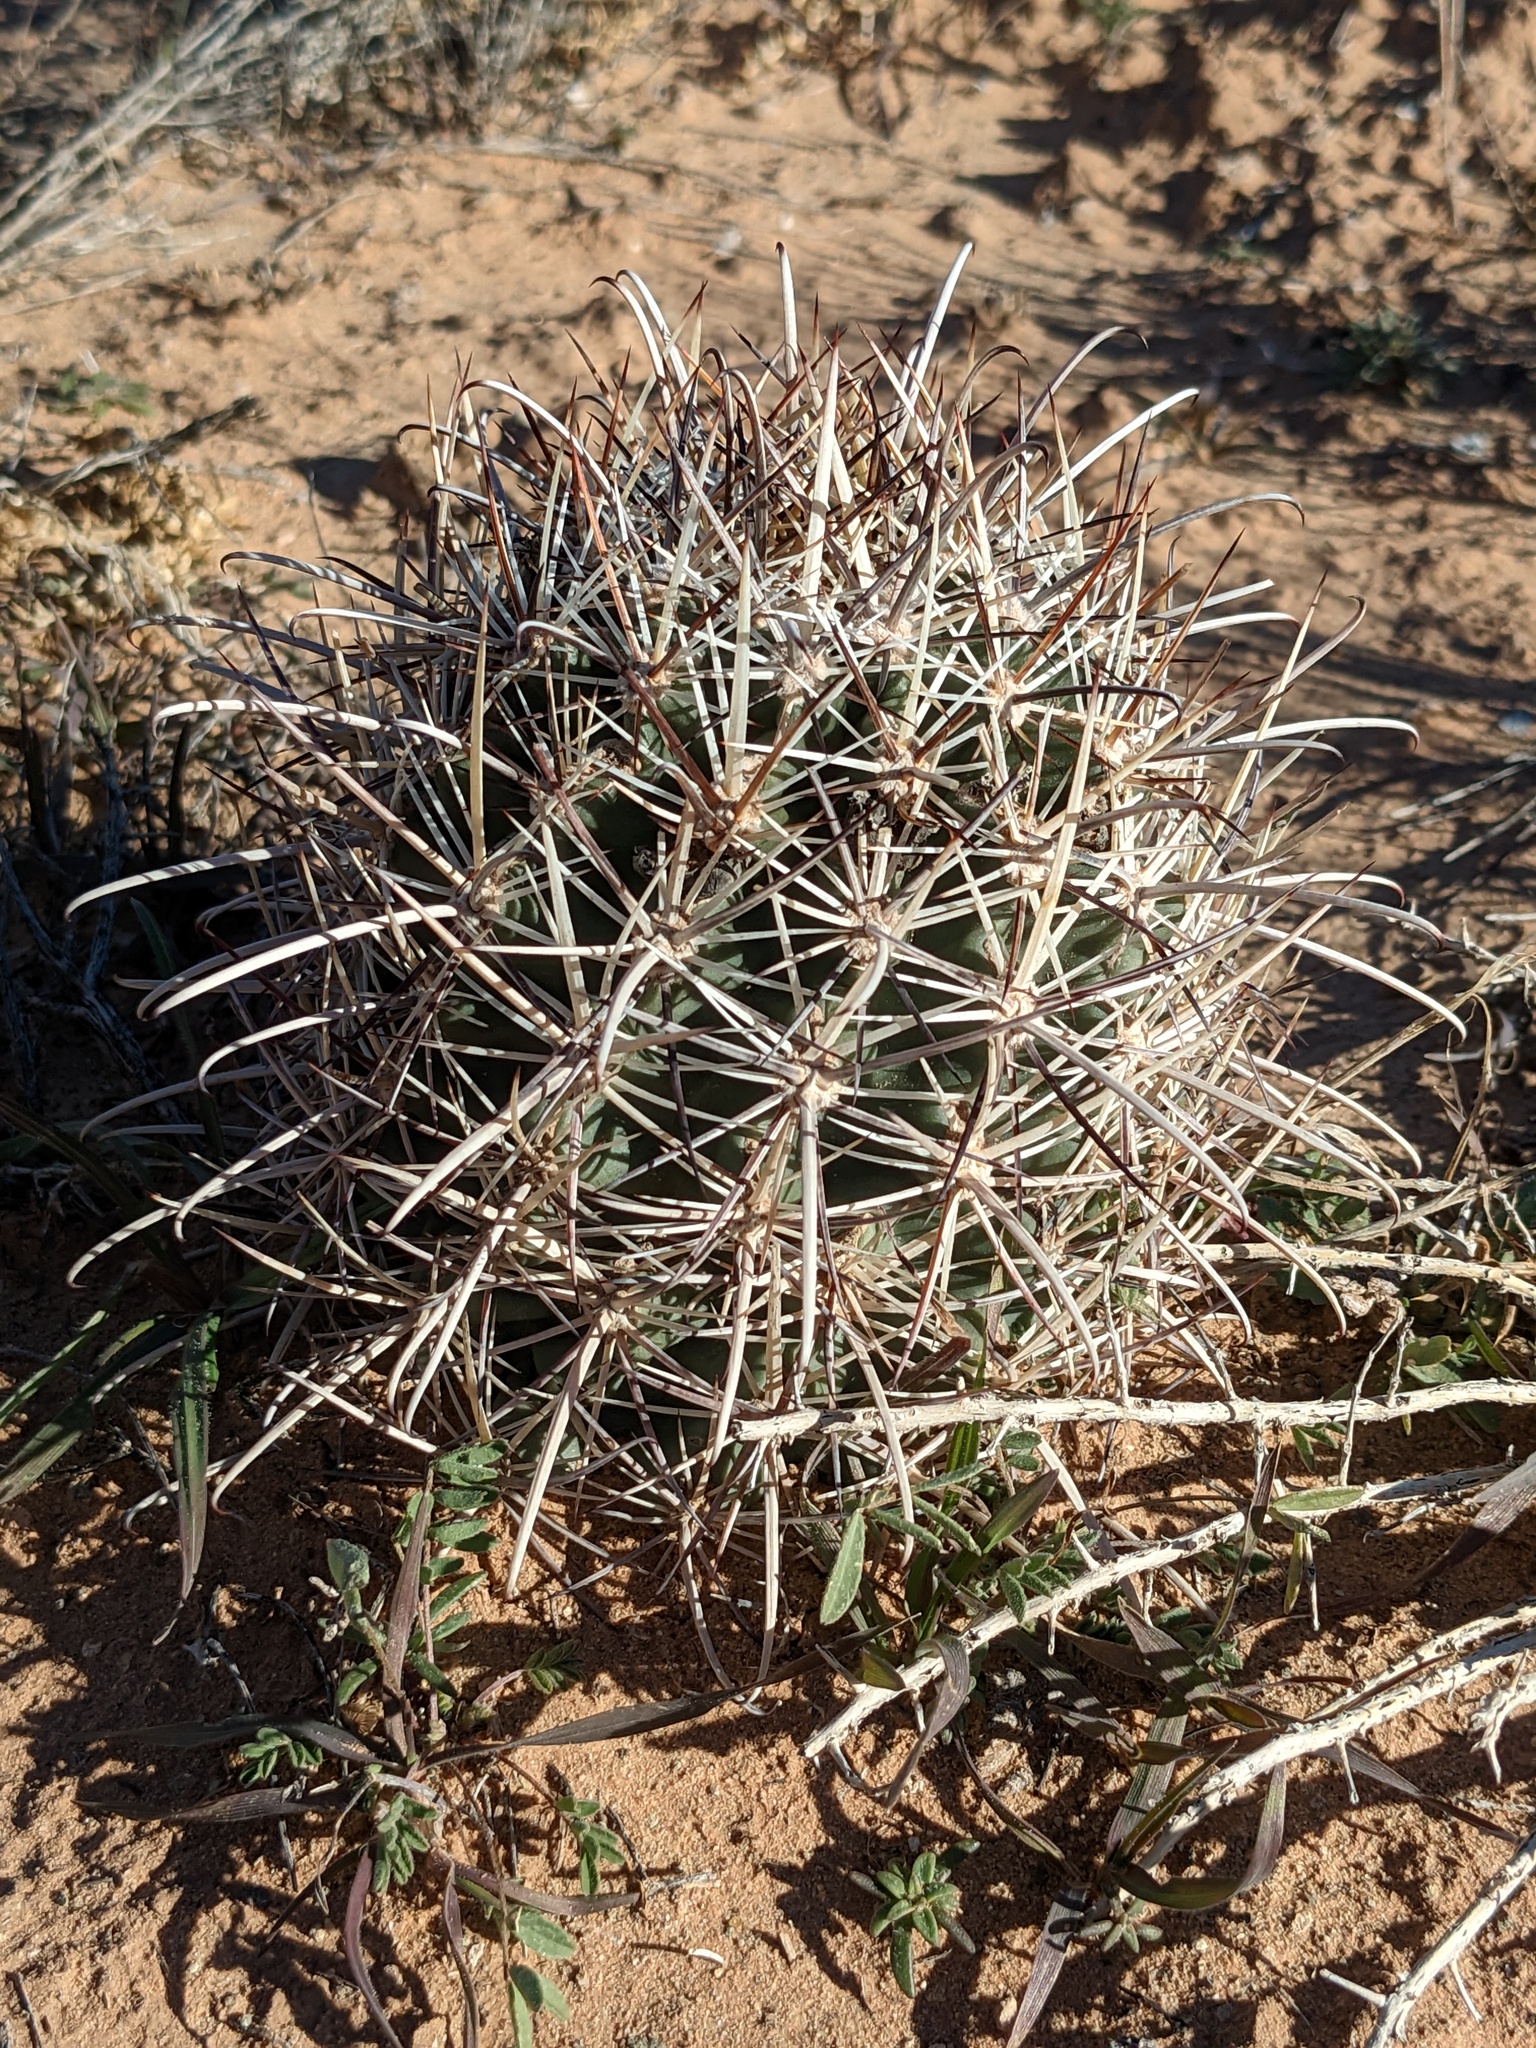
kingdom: Plantae
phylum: Tracheophyta
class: Magnoliopsida
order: Caryophyllales
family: Cactaceae
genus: Sclerocactus
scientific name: Sclerocactus parviflorus
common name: Small-flower fishhook cactus
